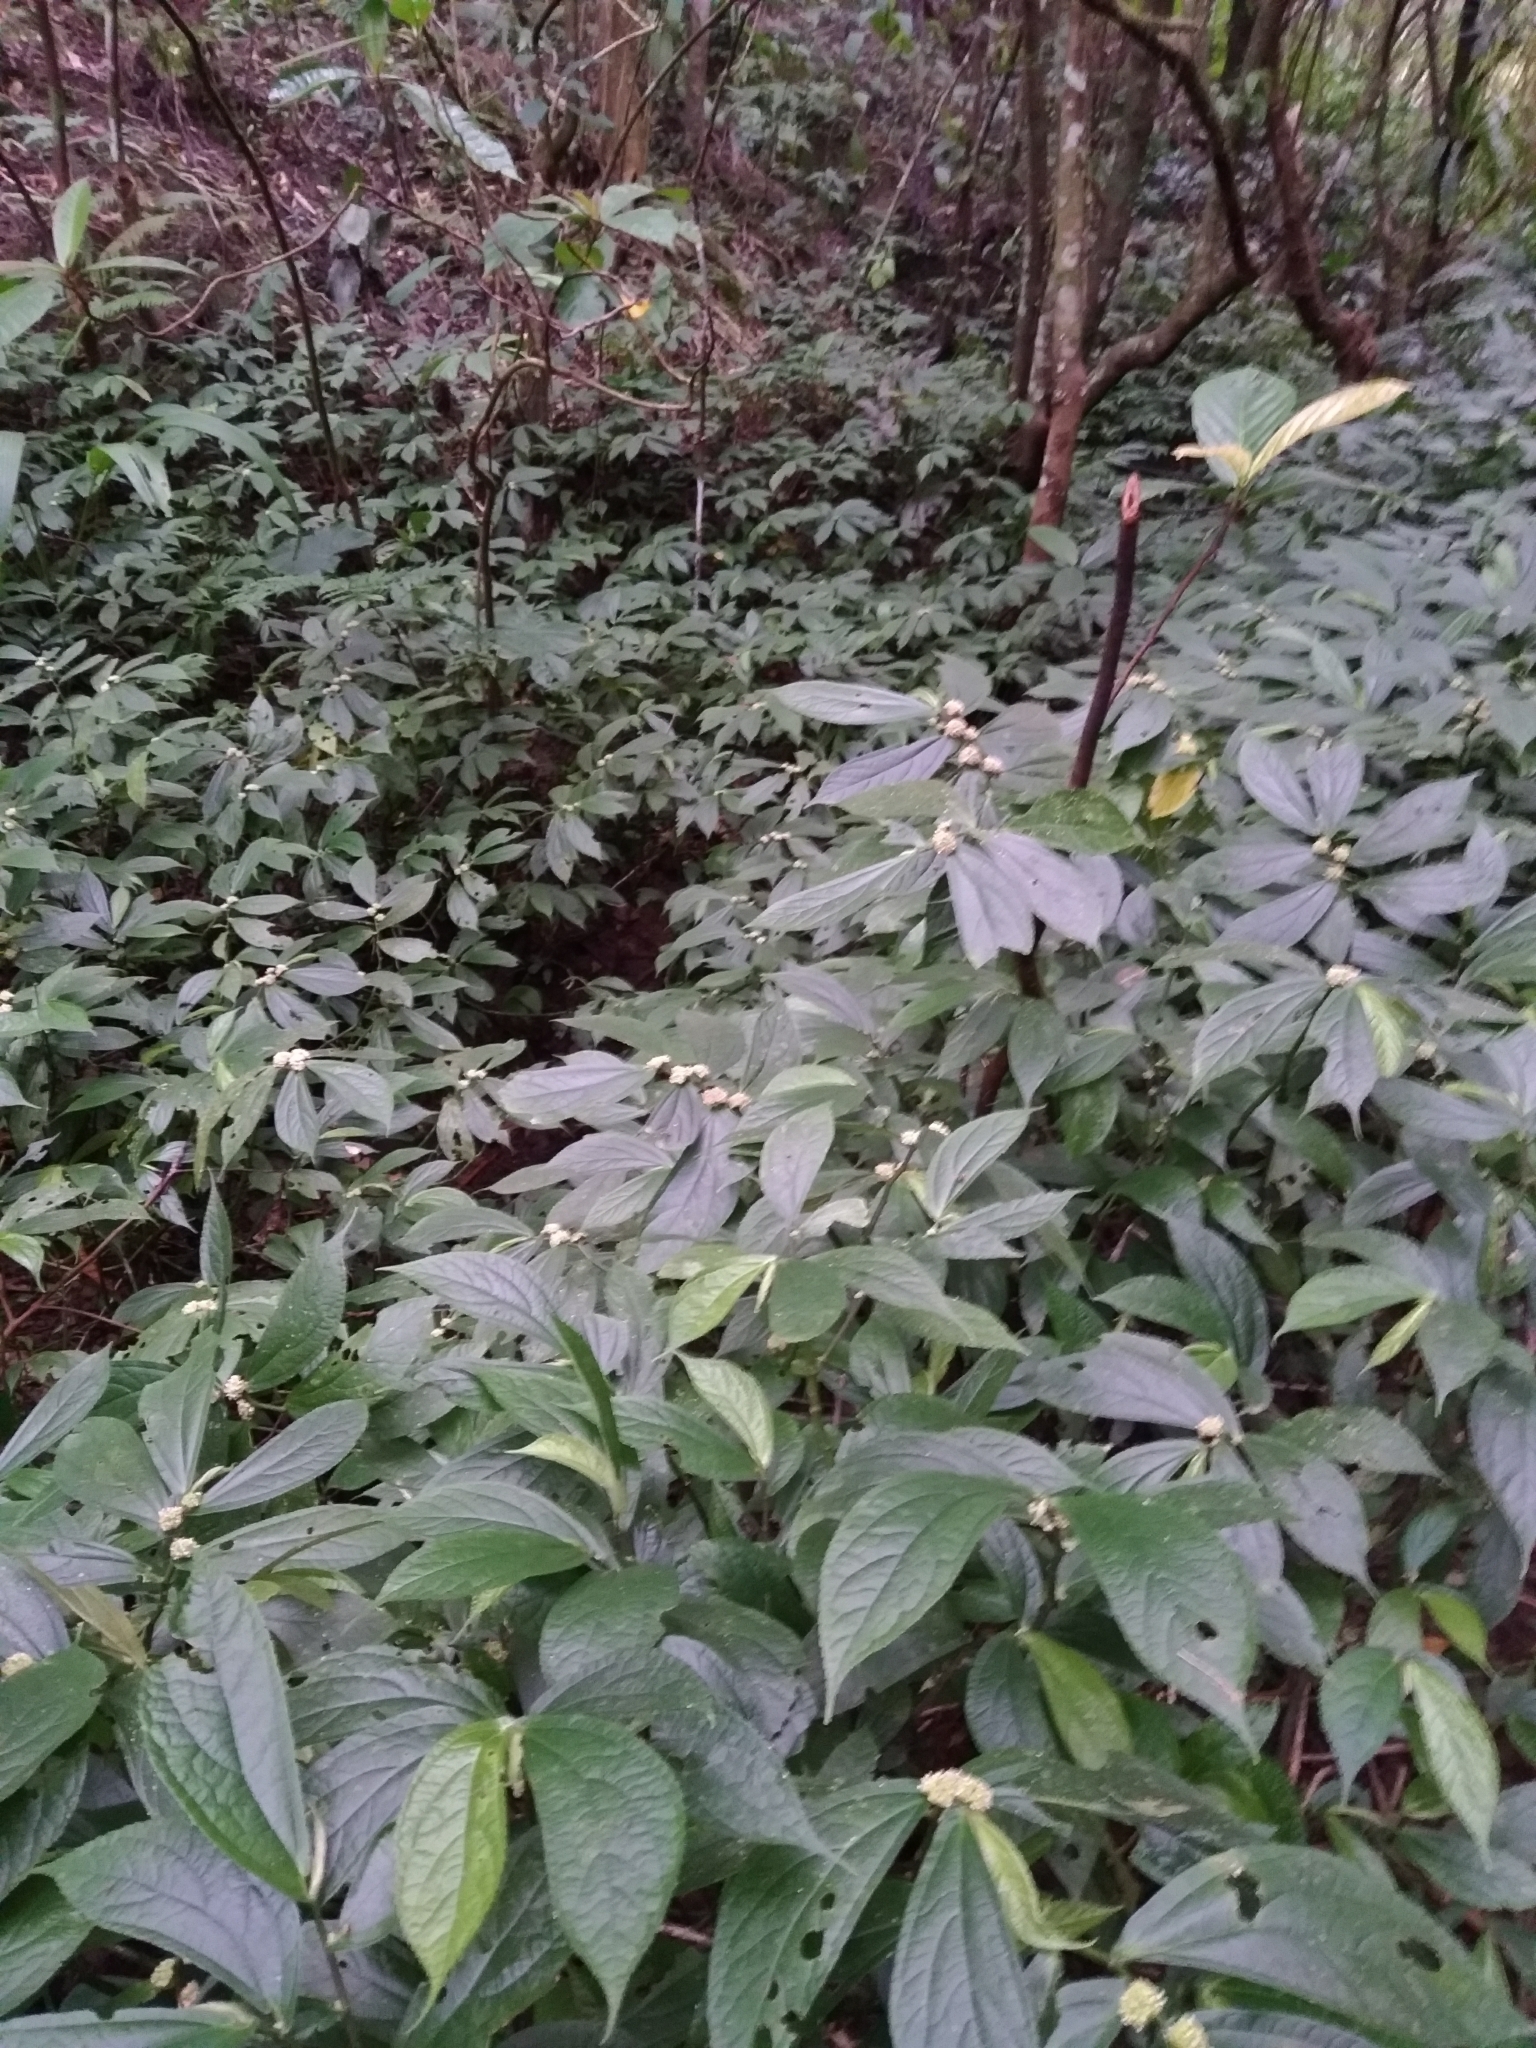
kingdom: Plantae
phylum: Tracheophyta
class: Magnoliopsida
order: Rosales
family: Urticaceae
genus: Elatostema
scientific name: Elatostema platyphyllum
